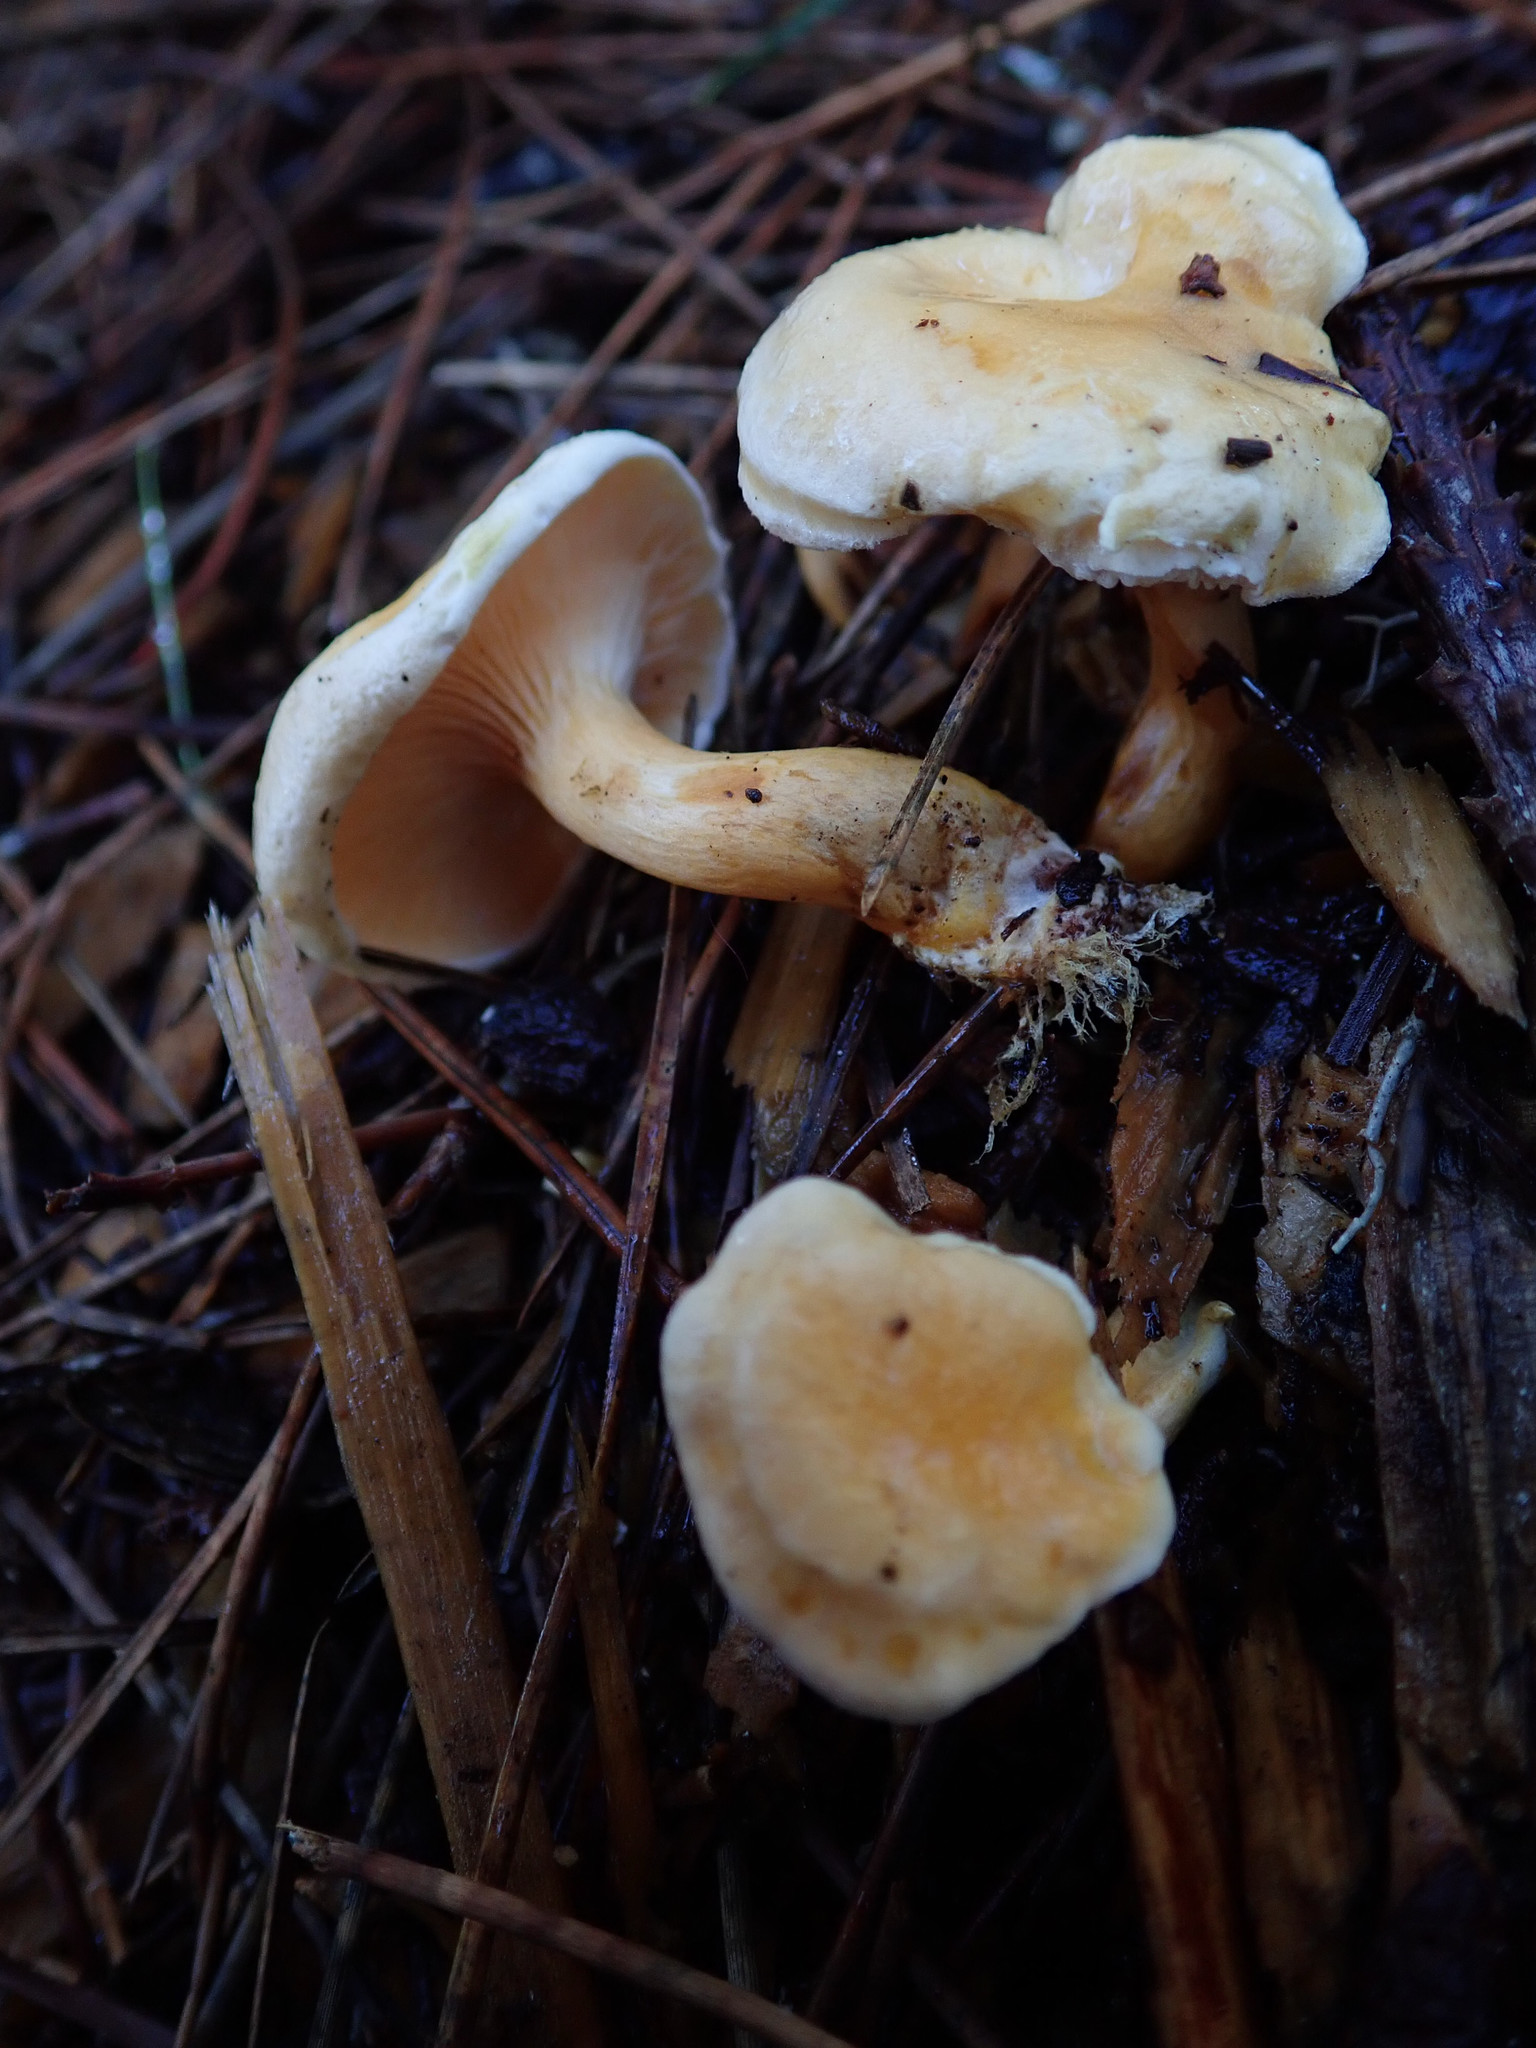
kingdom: Fungi
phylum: Basidiomycota
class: Agaricomycetes
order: Boletales
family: Hygrophoropsidaceae
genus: Hygrophoropsis
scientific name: Hygrophoropsis aurantiaca
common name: False chanterelle
